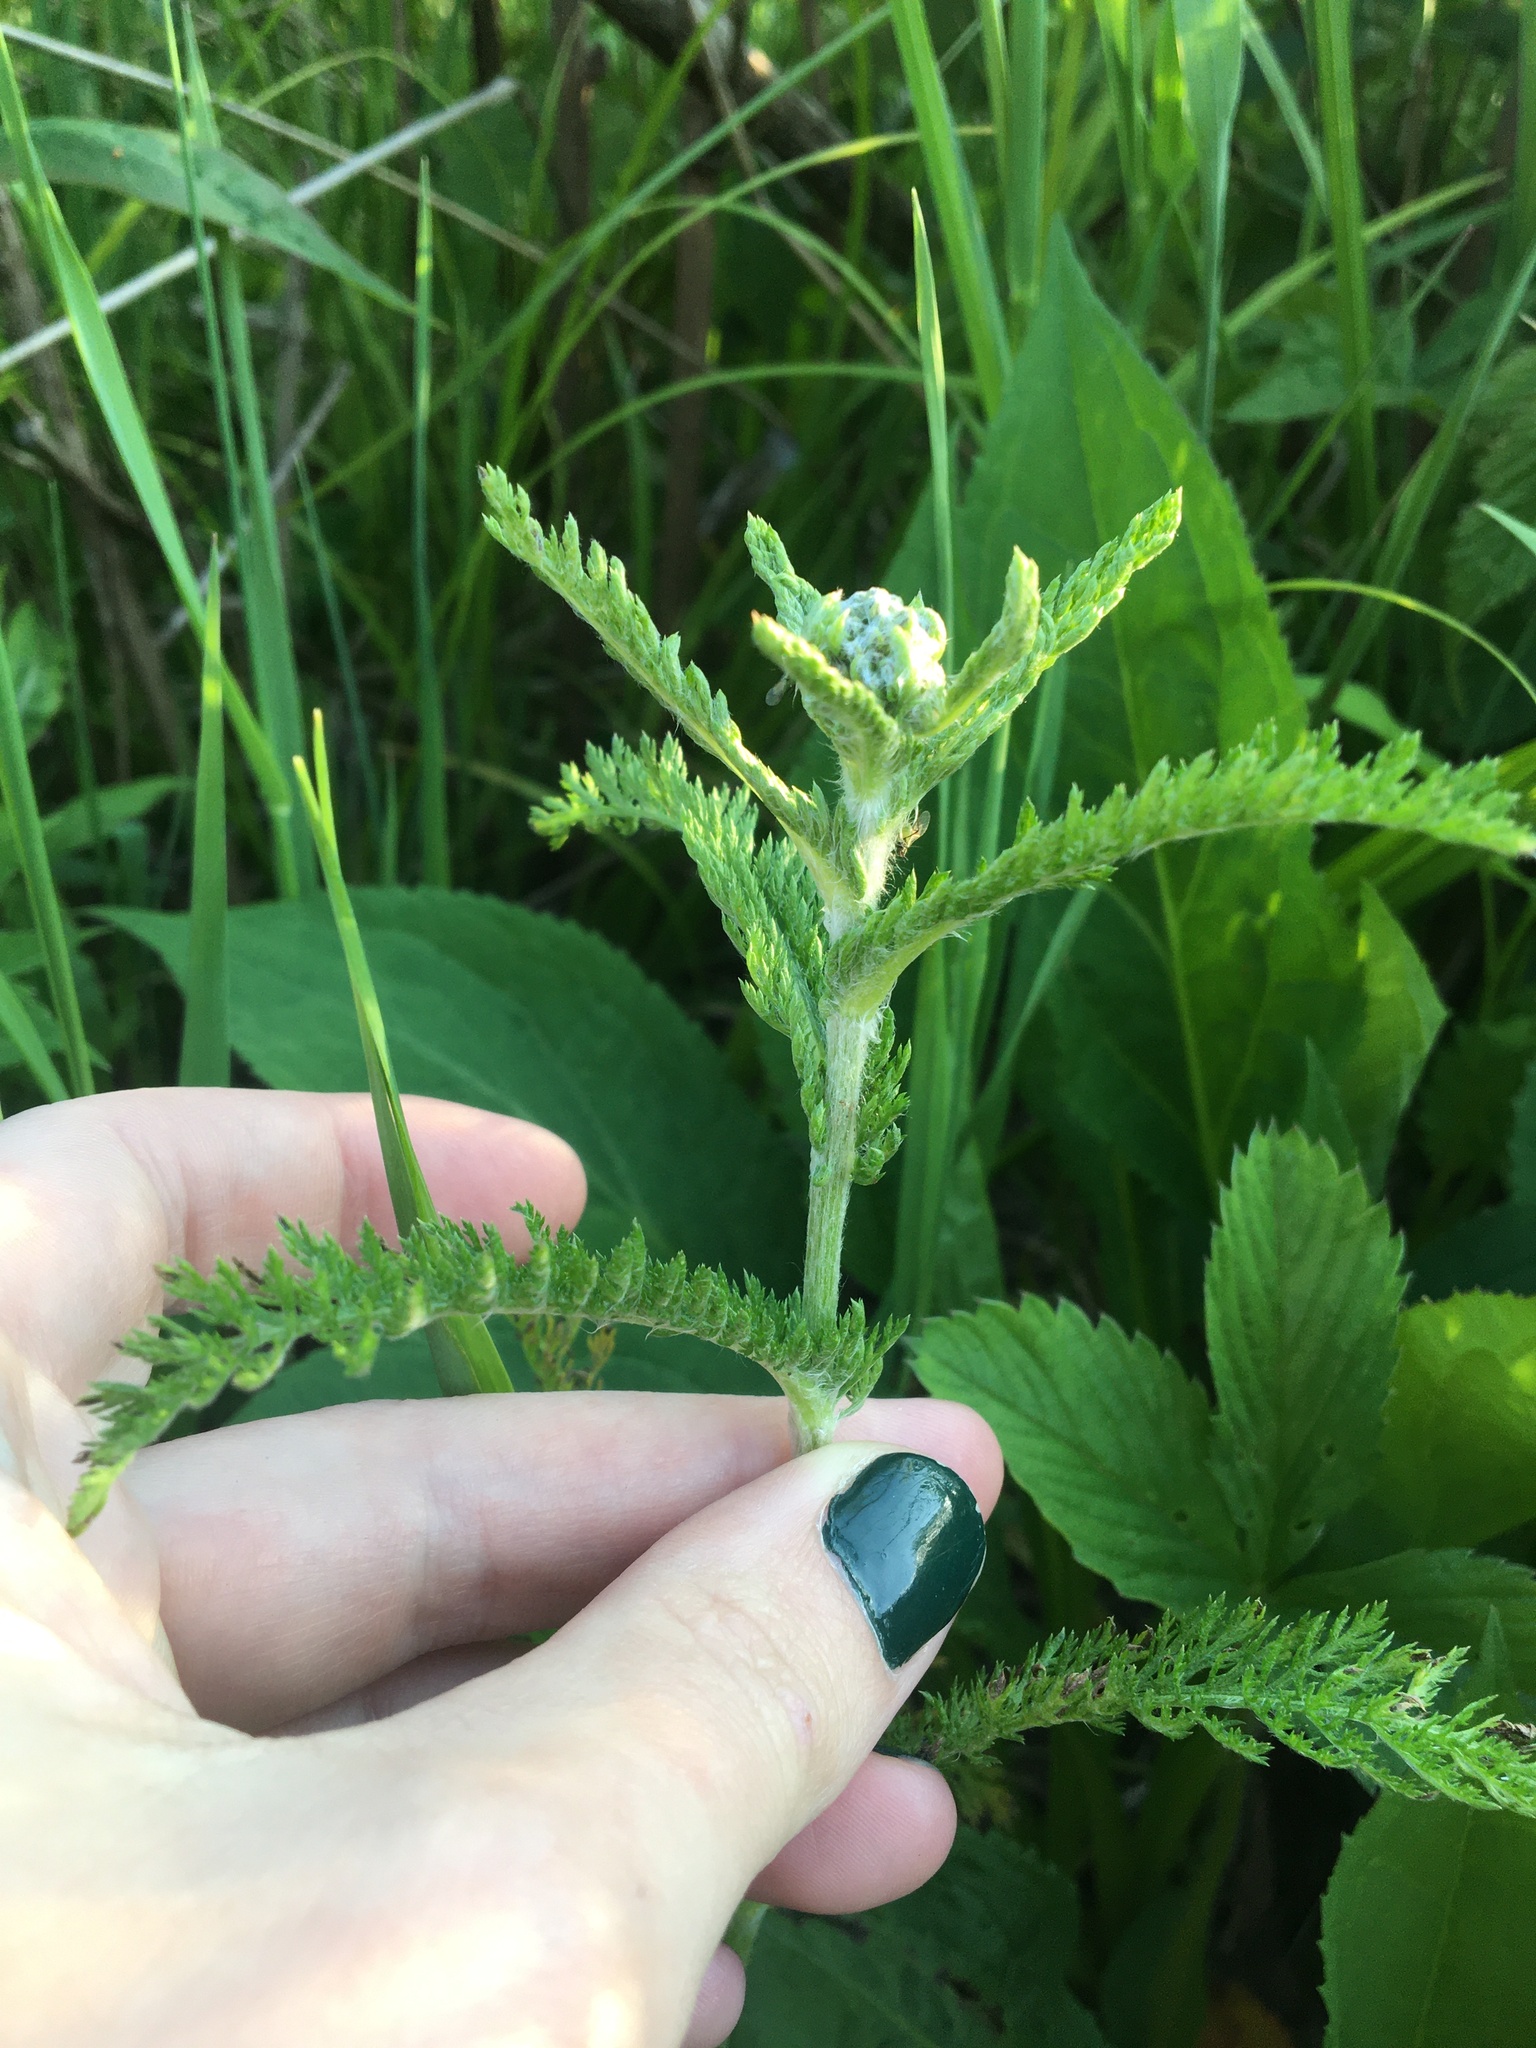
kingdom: Plantae
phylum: Tracheophyta
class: Magnoliopsida
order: Asterales
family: Asteraceae
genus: Achillea
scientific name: Achillea millefolium
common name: Yarrow
